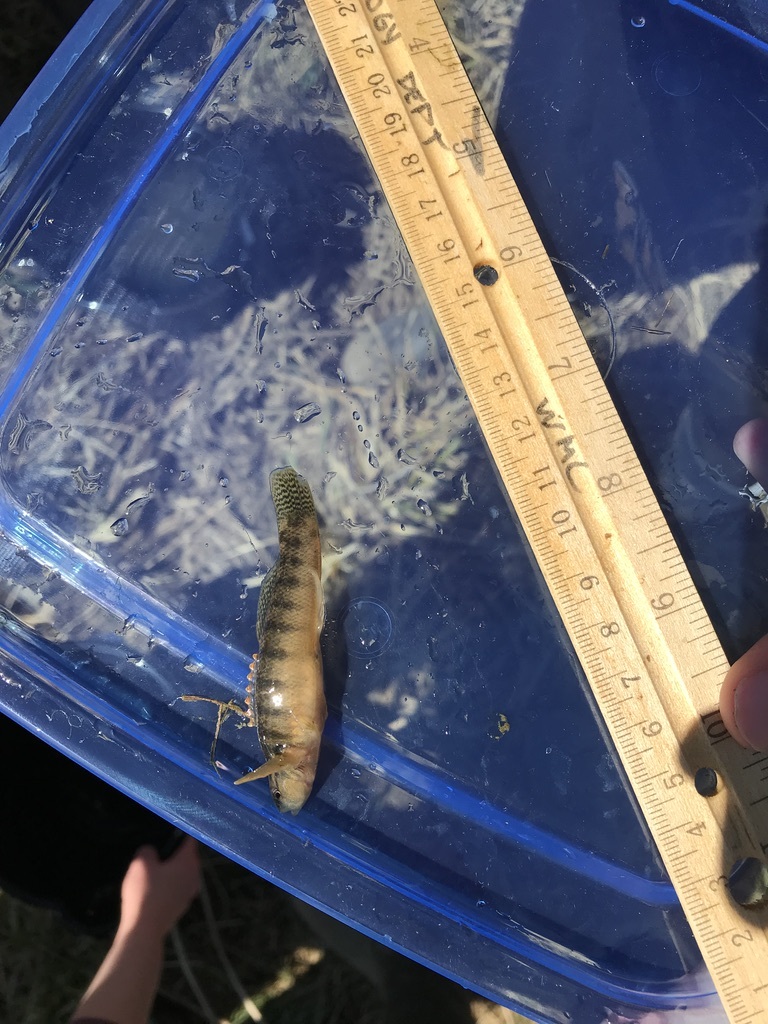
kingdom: Animalia
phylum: Chordata
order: Perciformes
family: Percidae
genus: Etheostoma
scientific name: Etheostoma flabellare
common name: Fantail darter
